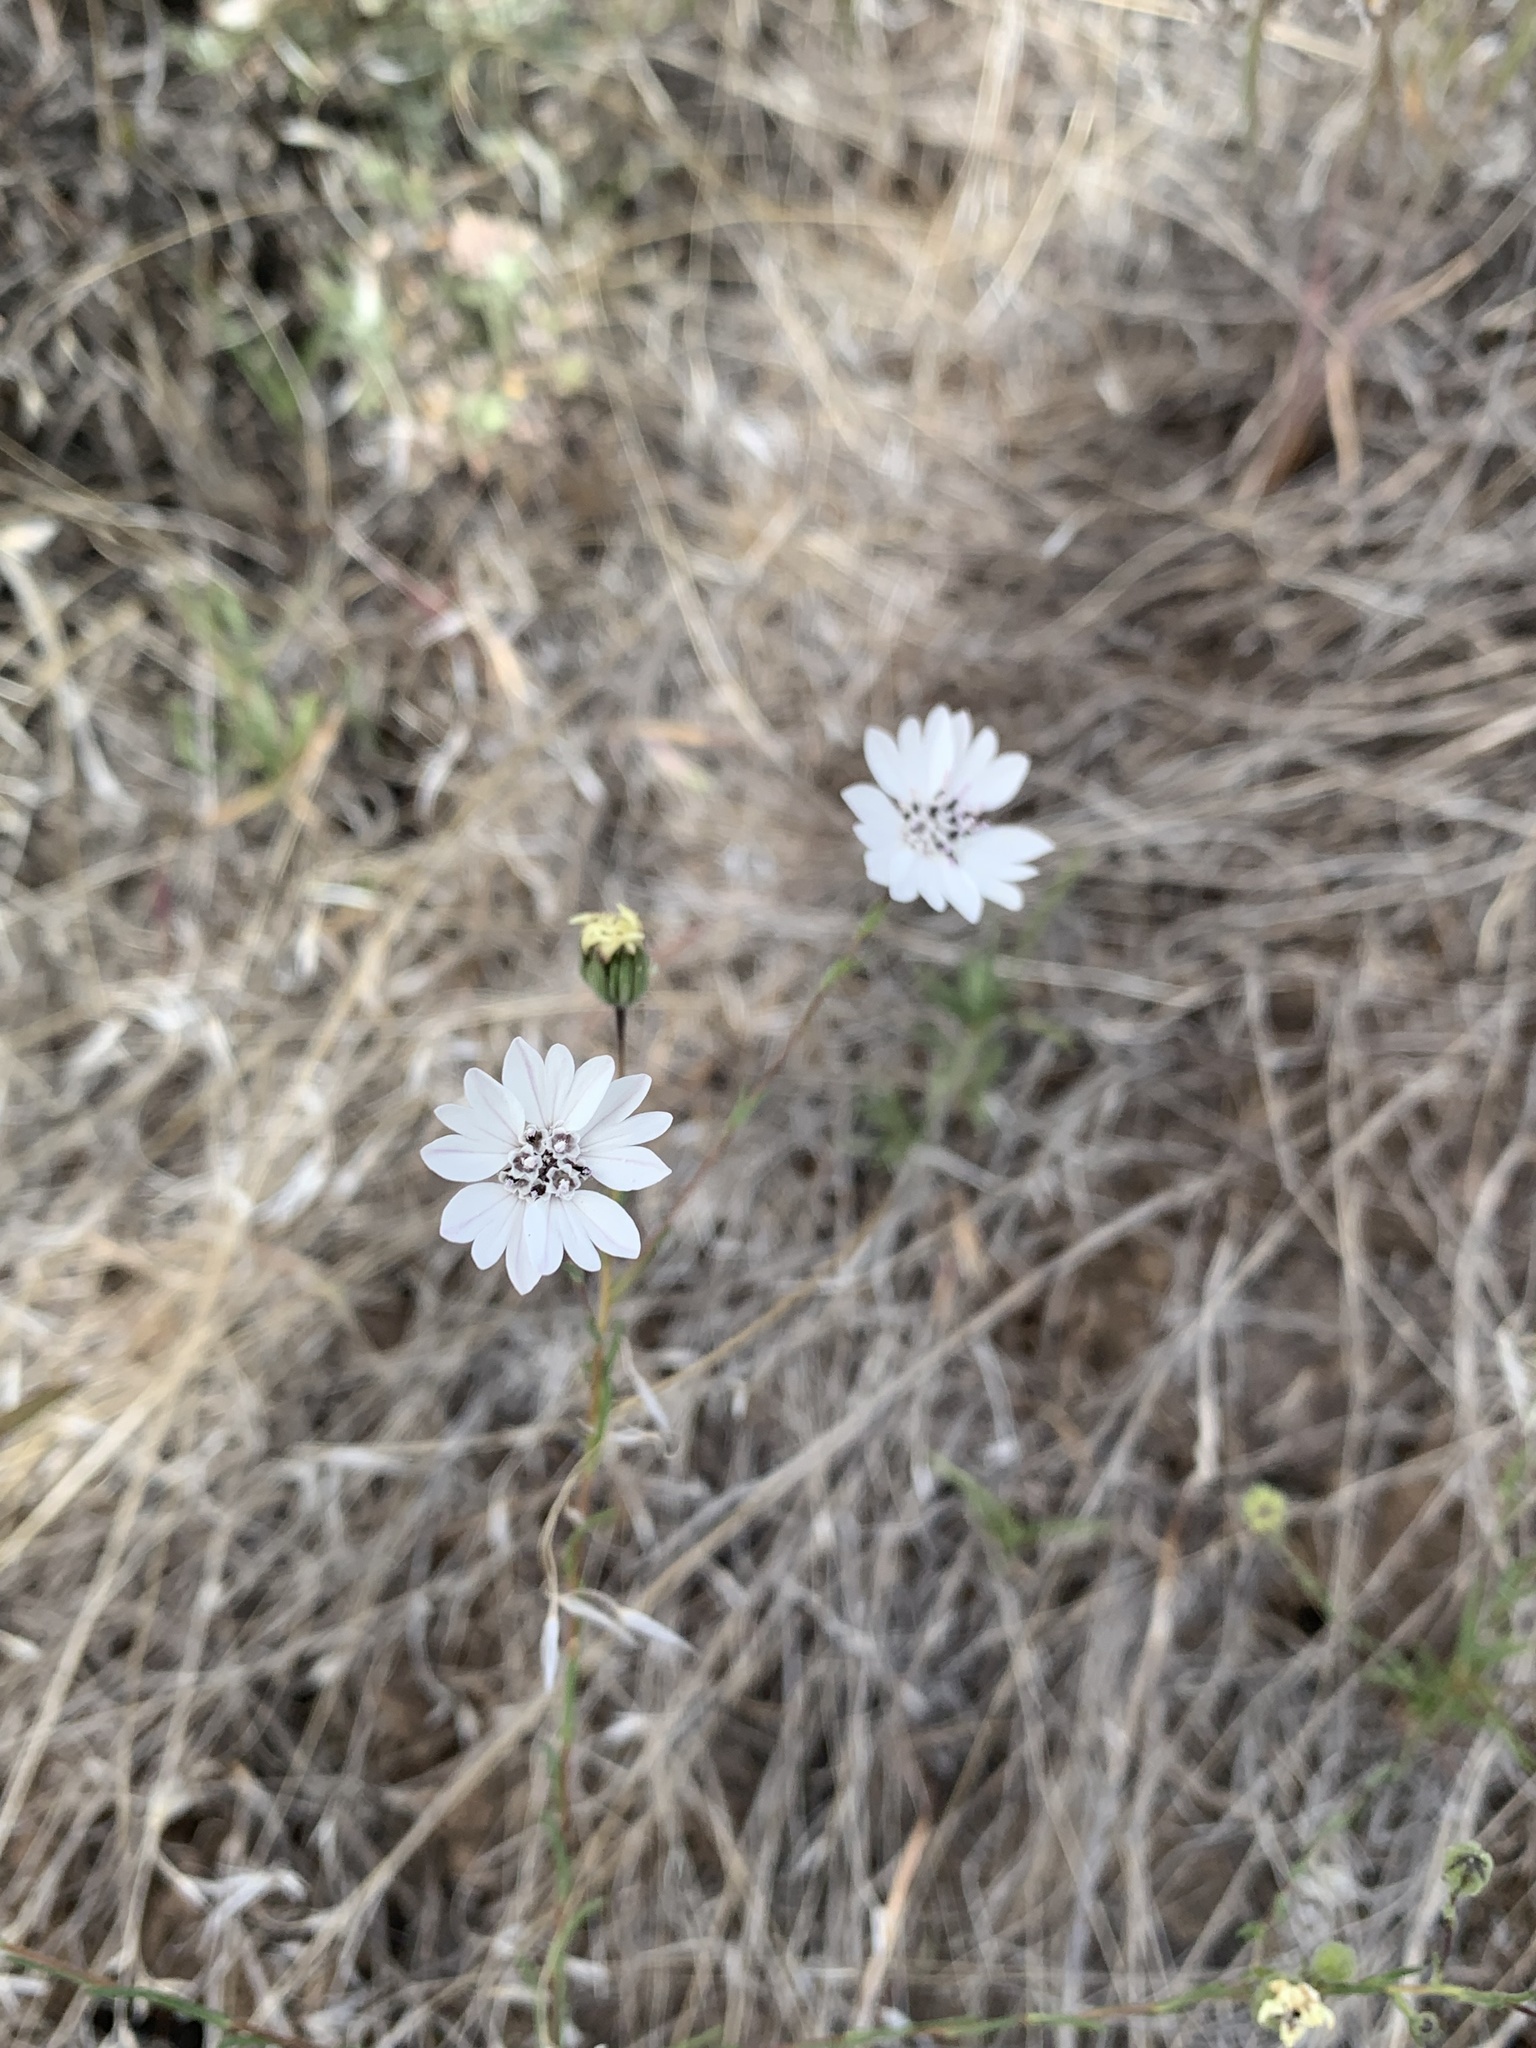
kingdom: Plantae
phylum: Tracheophyta
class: Magnoliopsida
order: Asterales
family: Asteraceae
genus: Blepharipappus
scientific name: Blepharipappus scaber
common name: Rough blepharipappus
